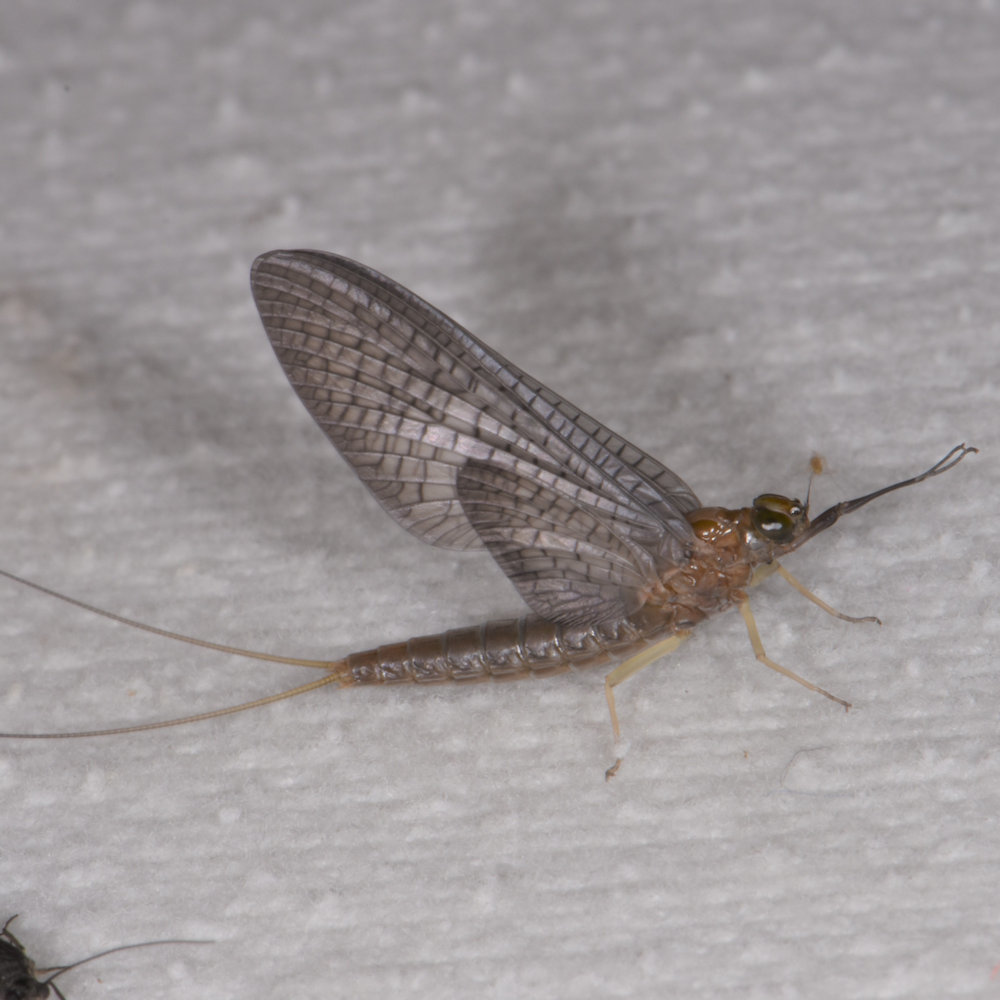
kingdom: Animalia
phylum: Arthropoda
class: Insecta
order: Ephemeroptera
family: Isonychiidae
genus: Isonychia
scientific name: Isonychia bicolor
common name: Mahogany dun
